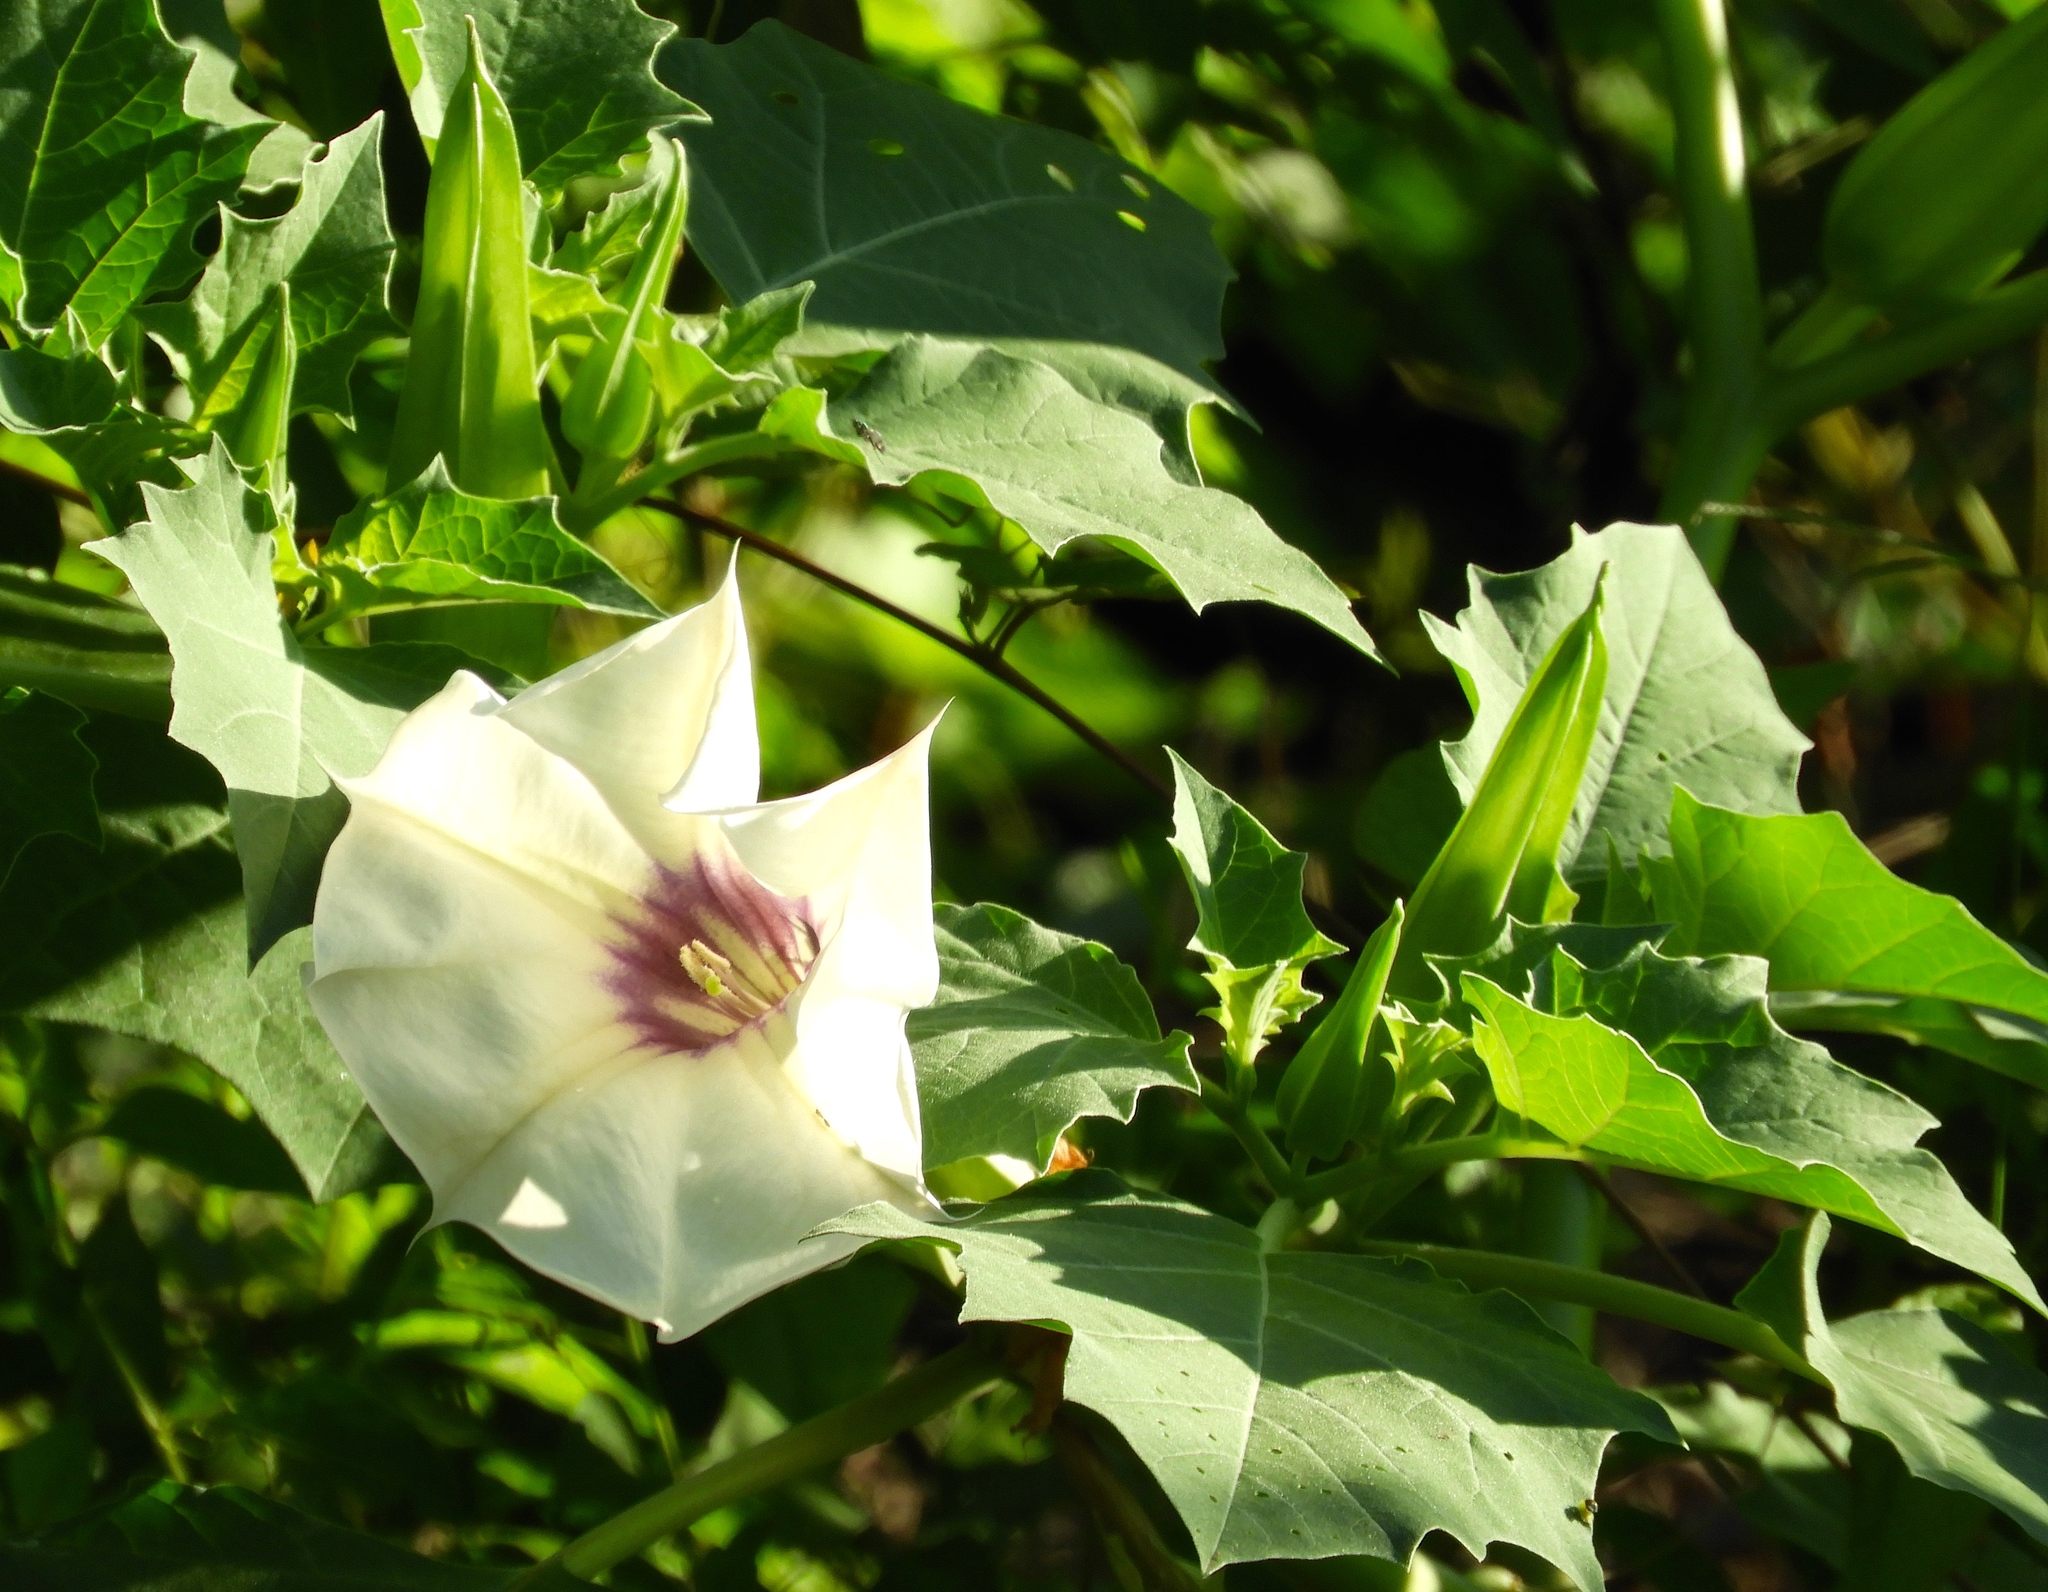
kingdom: Plantae
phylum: Tracheophyta
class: Magnoliopsida
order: Solanales
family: Solanaceae
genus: Datura
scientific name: Datura
